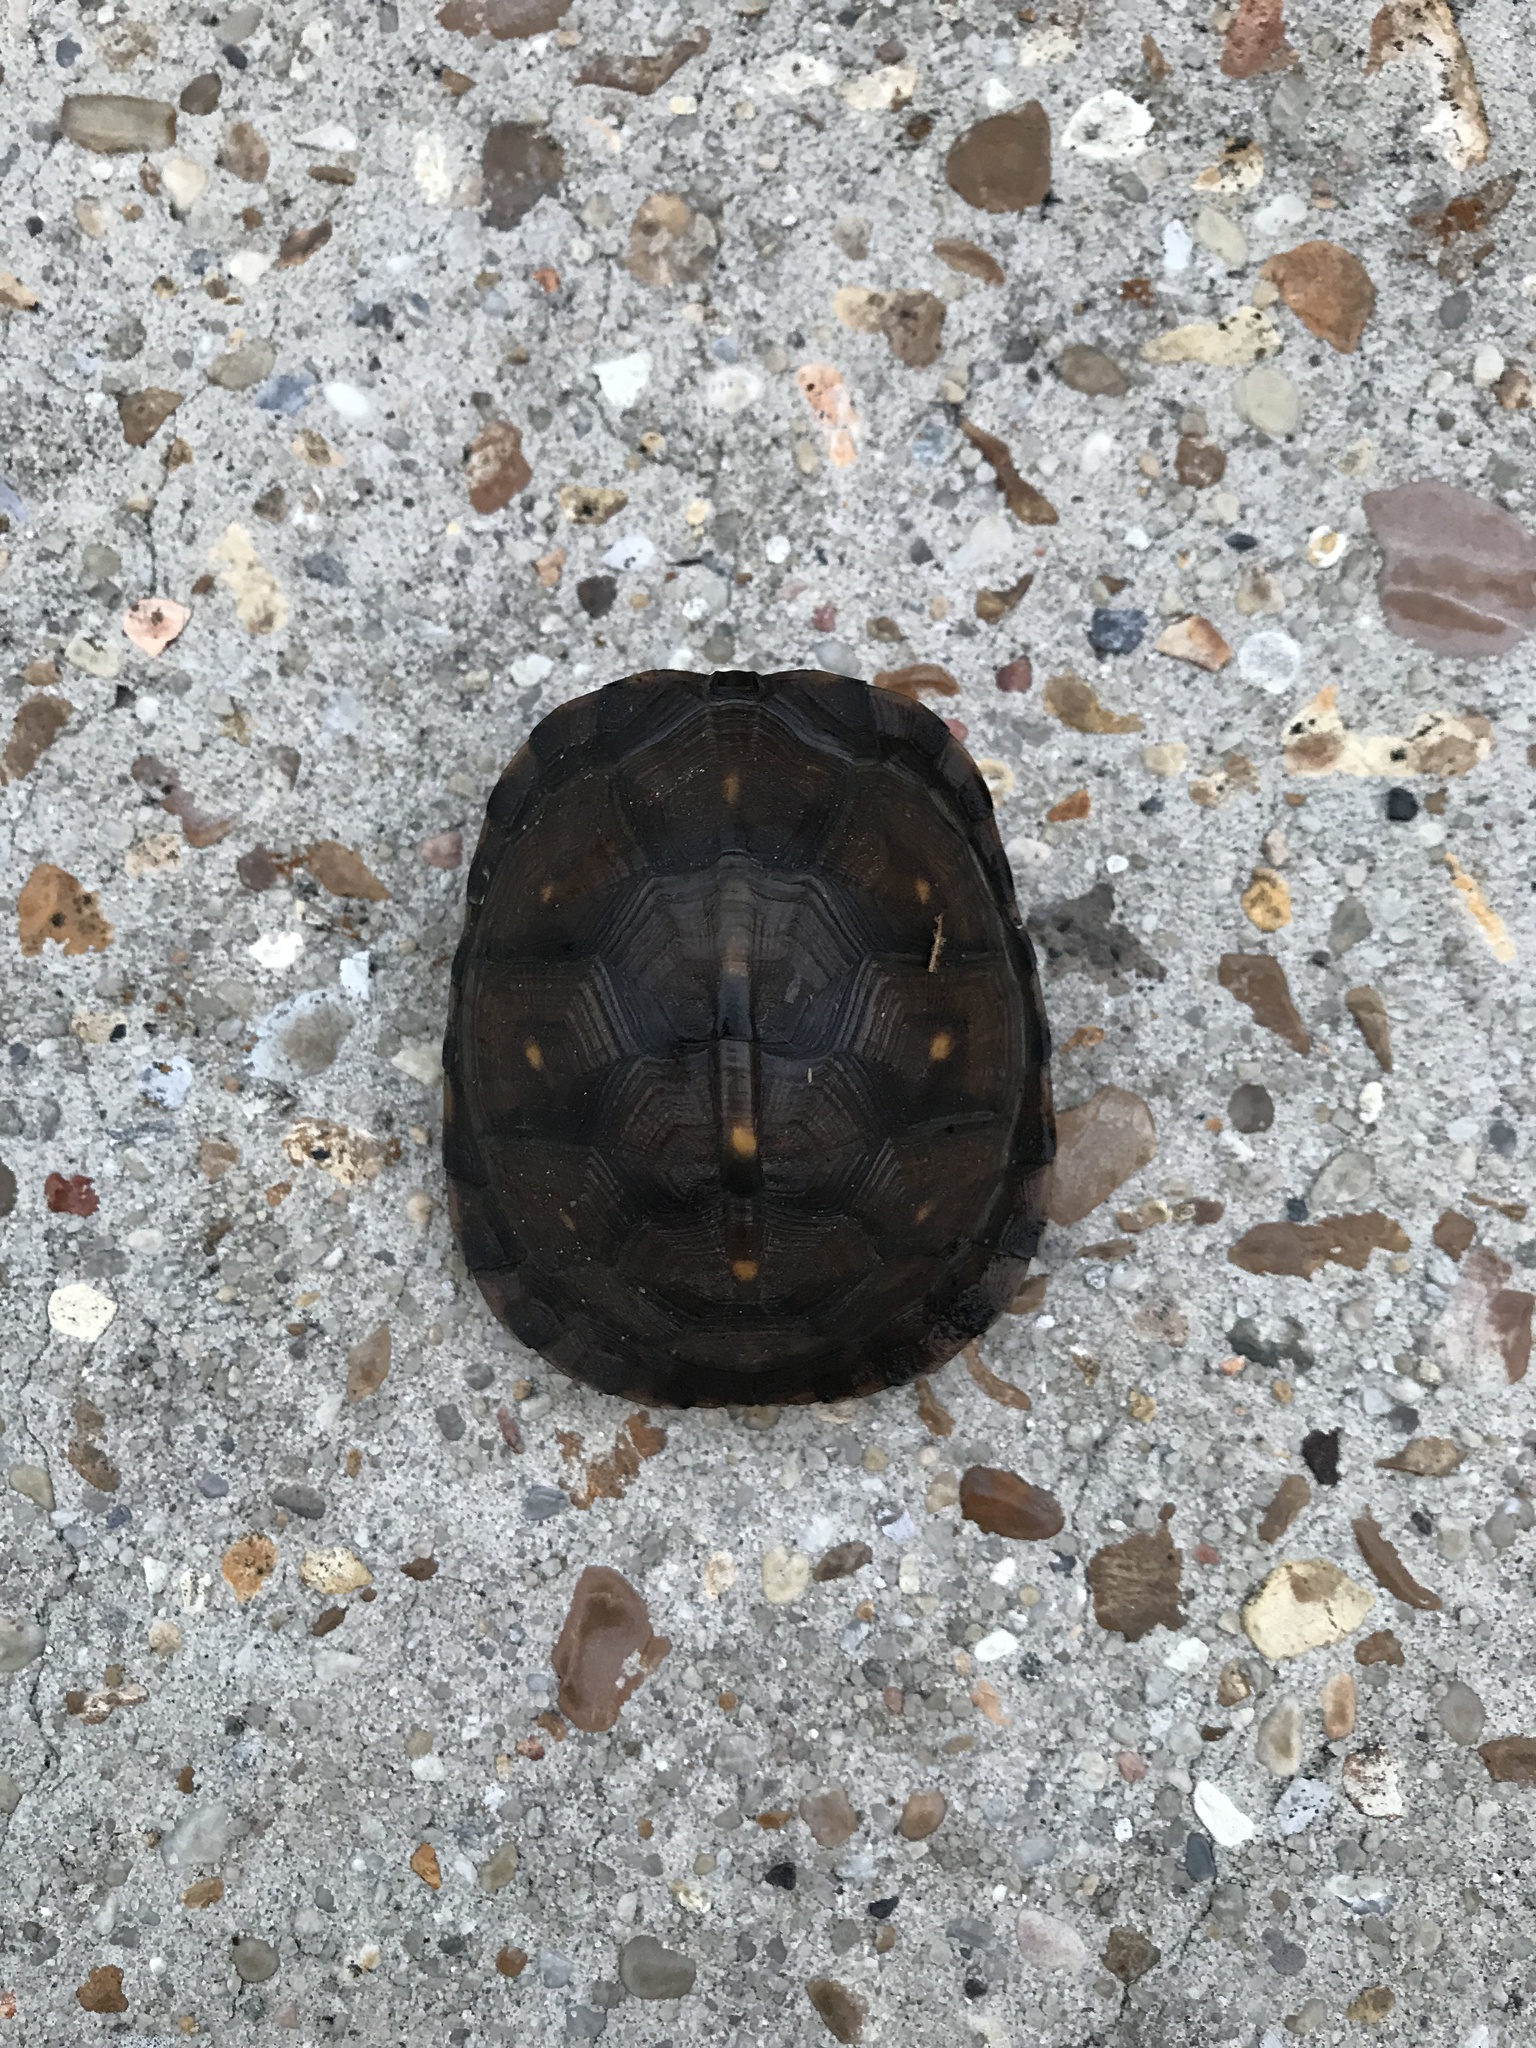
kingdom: Animalia
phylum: Chordata
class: Testudines
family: Emydidae
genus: Terrapene
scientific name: Terrapene carolina
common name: Common box turtle
